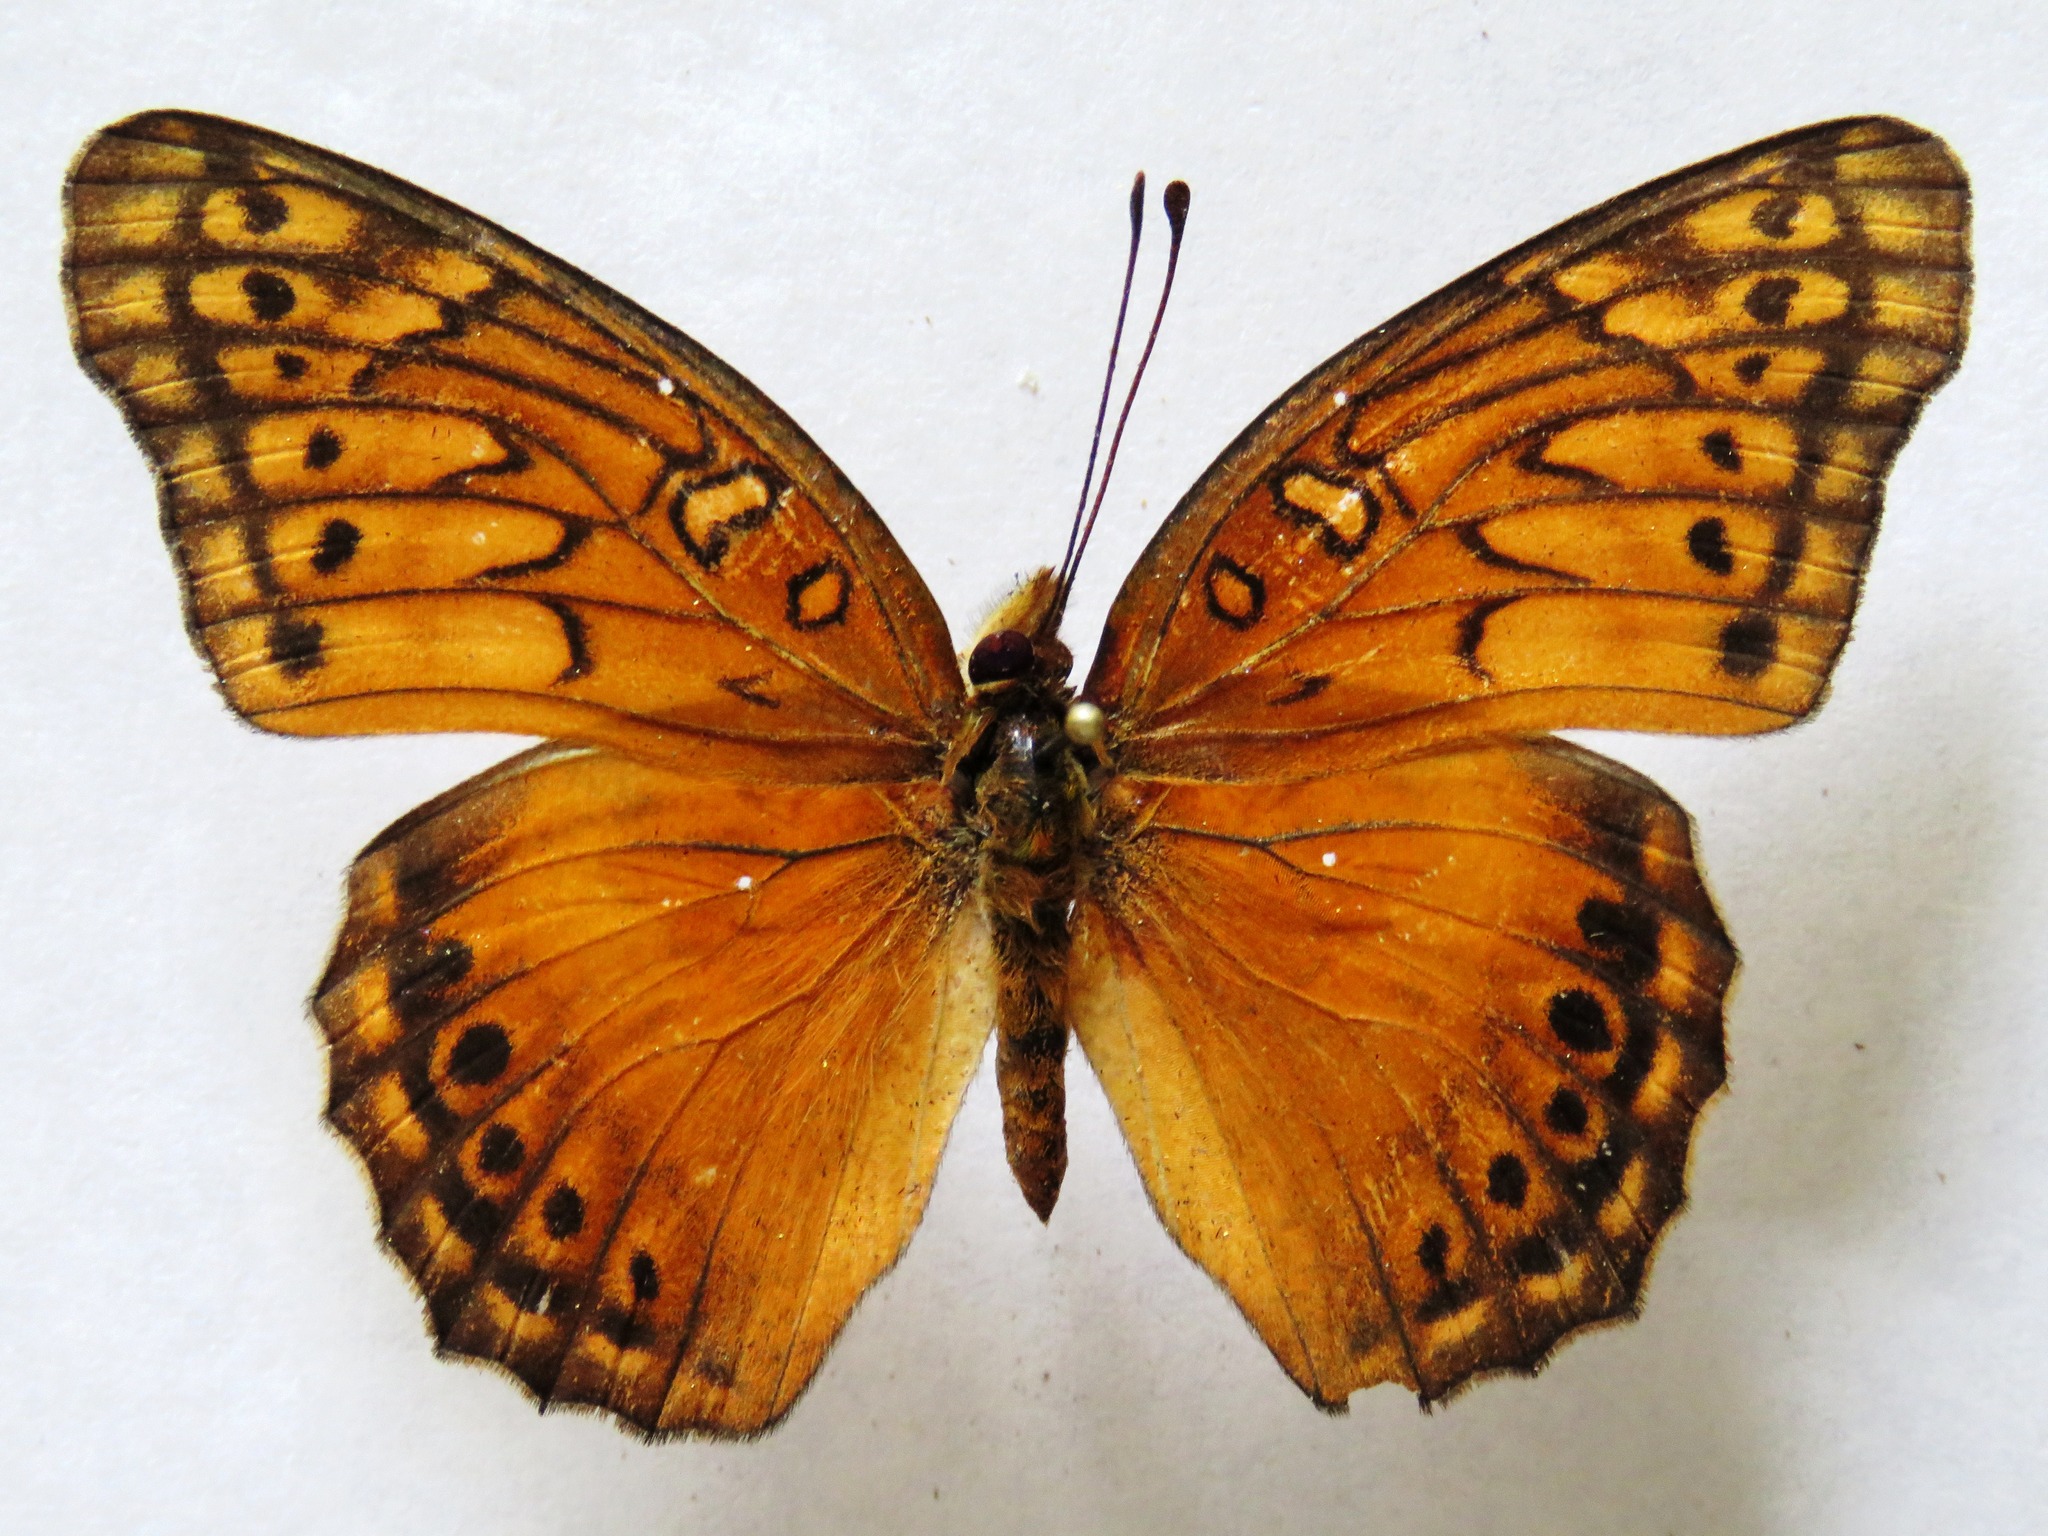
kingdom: Animalia
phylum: Arthropoda
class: Insecta
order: Lepidoptera
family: Nymphalidae
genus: Euptoieta
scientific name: Euptoieta hegesia
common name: Mexican fritillary
